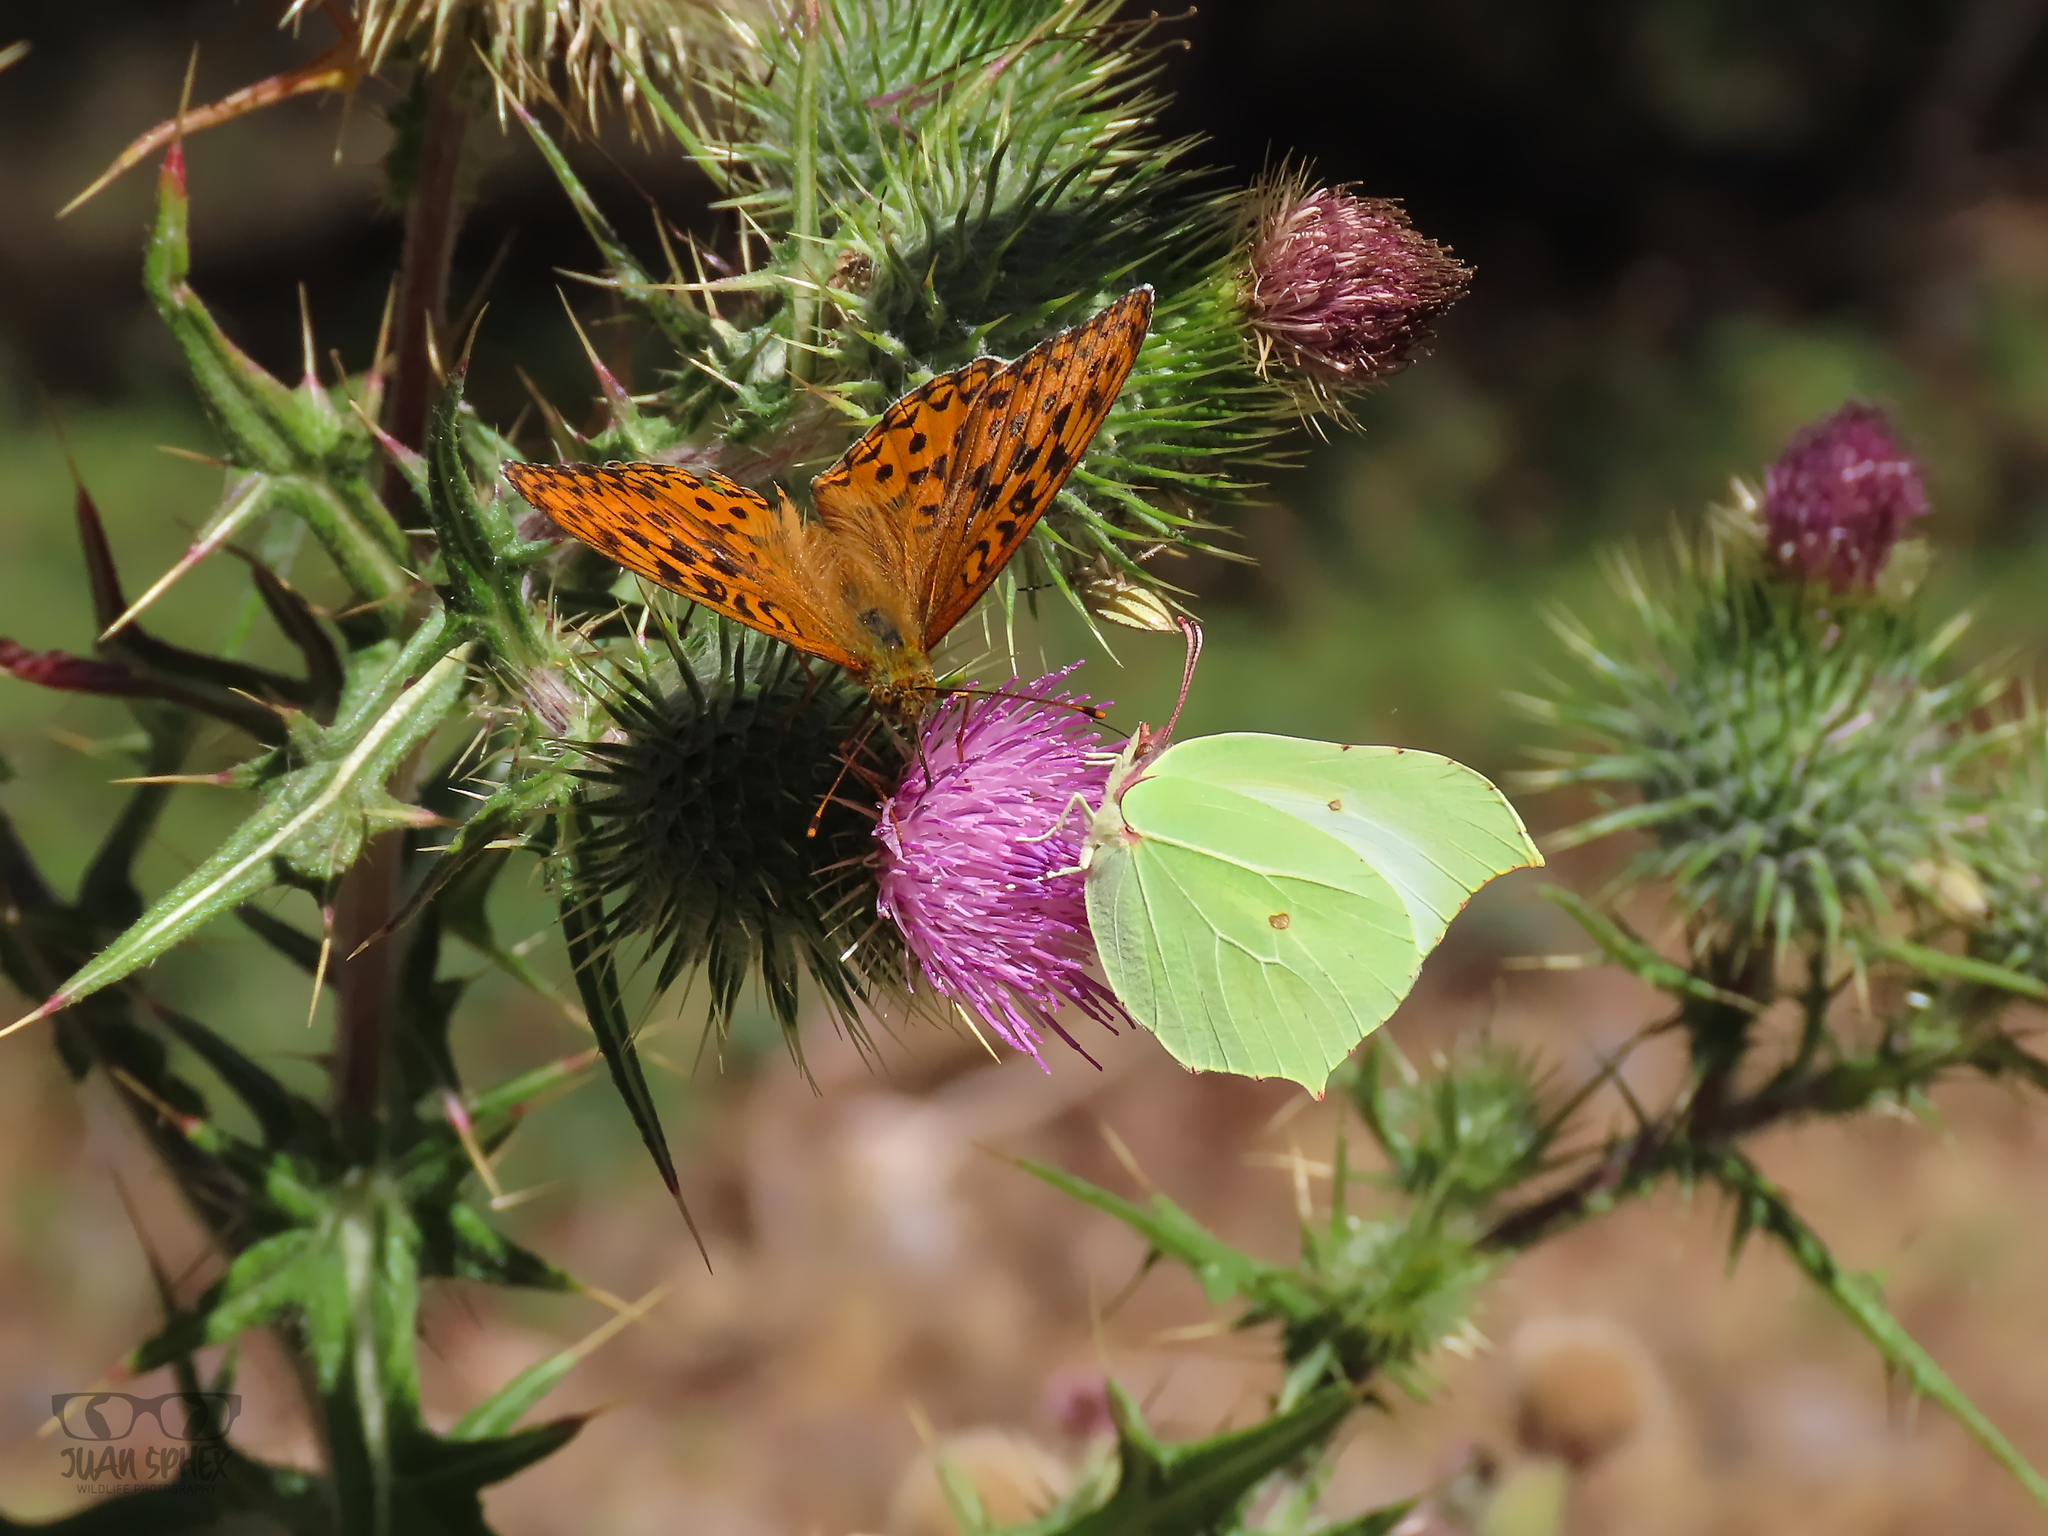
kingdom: Animalia
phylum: Arthropoda
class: Insecta
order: Lepidoptera
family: Pieridae
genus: Gonepteryx
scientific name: Gonepteryx rhamni
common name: Brimstone
